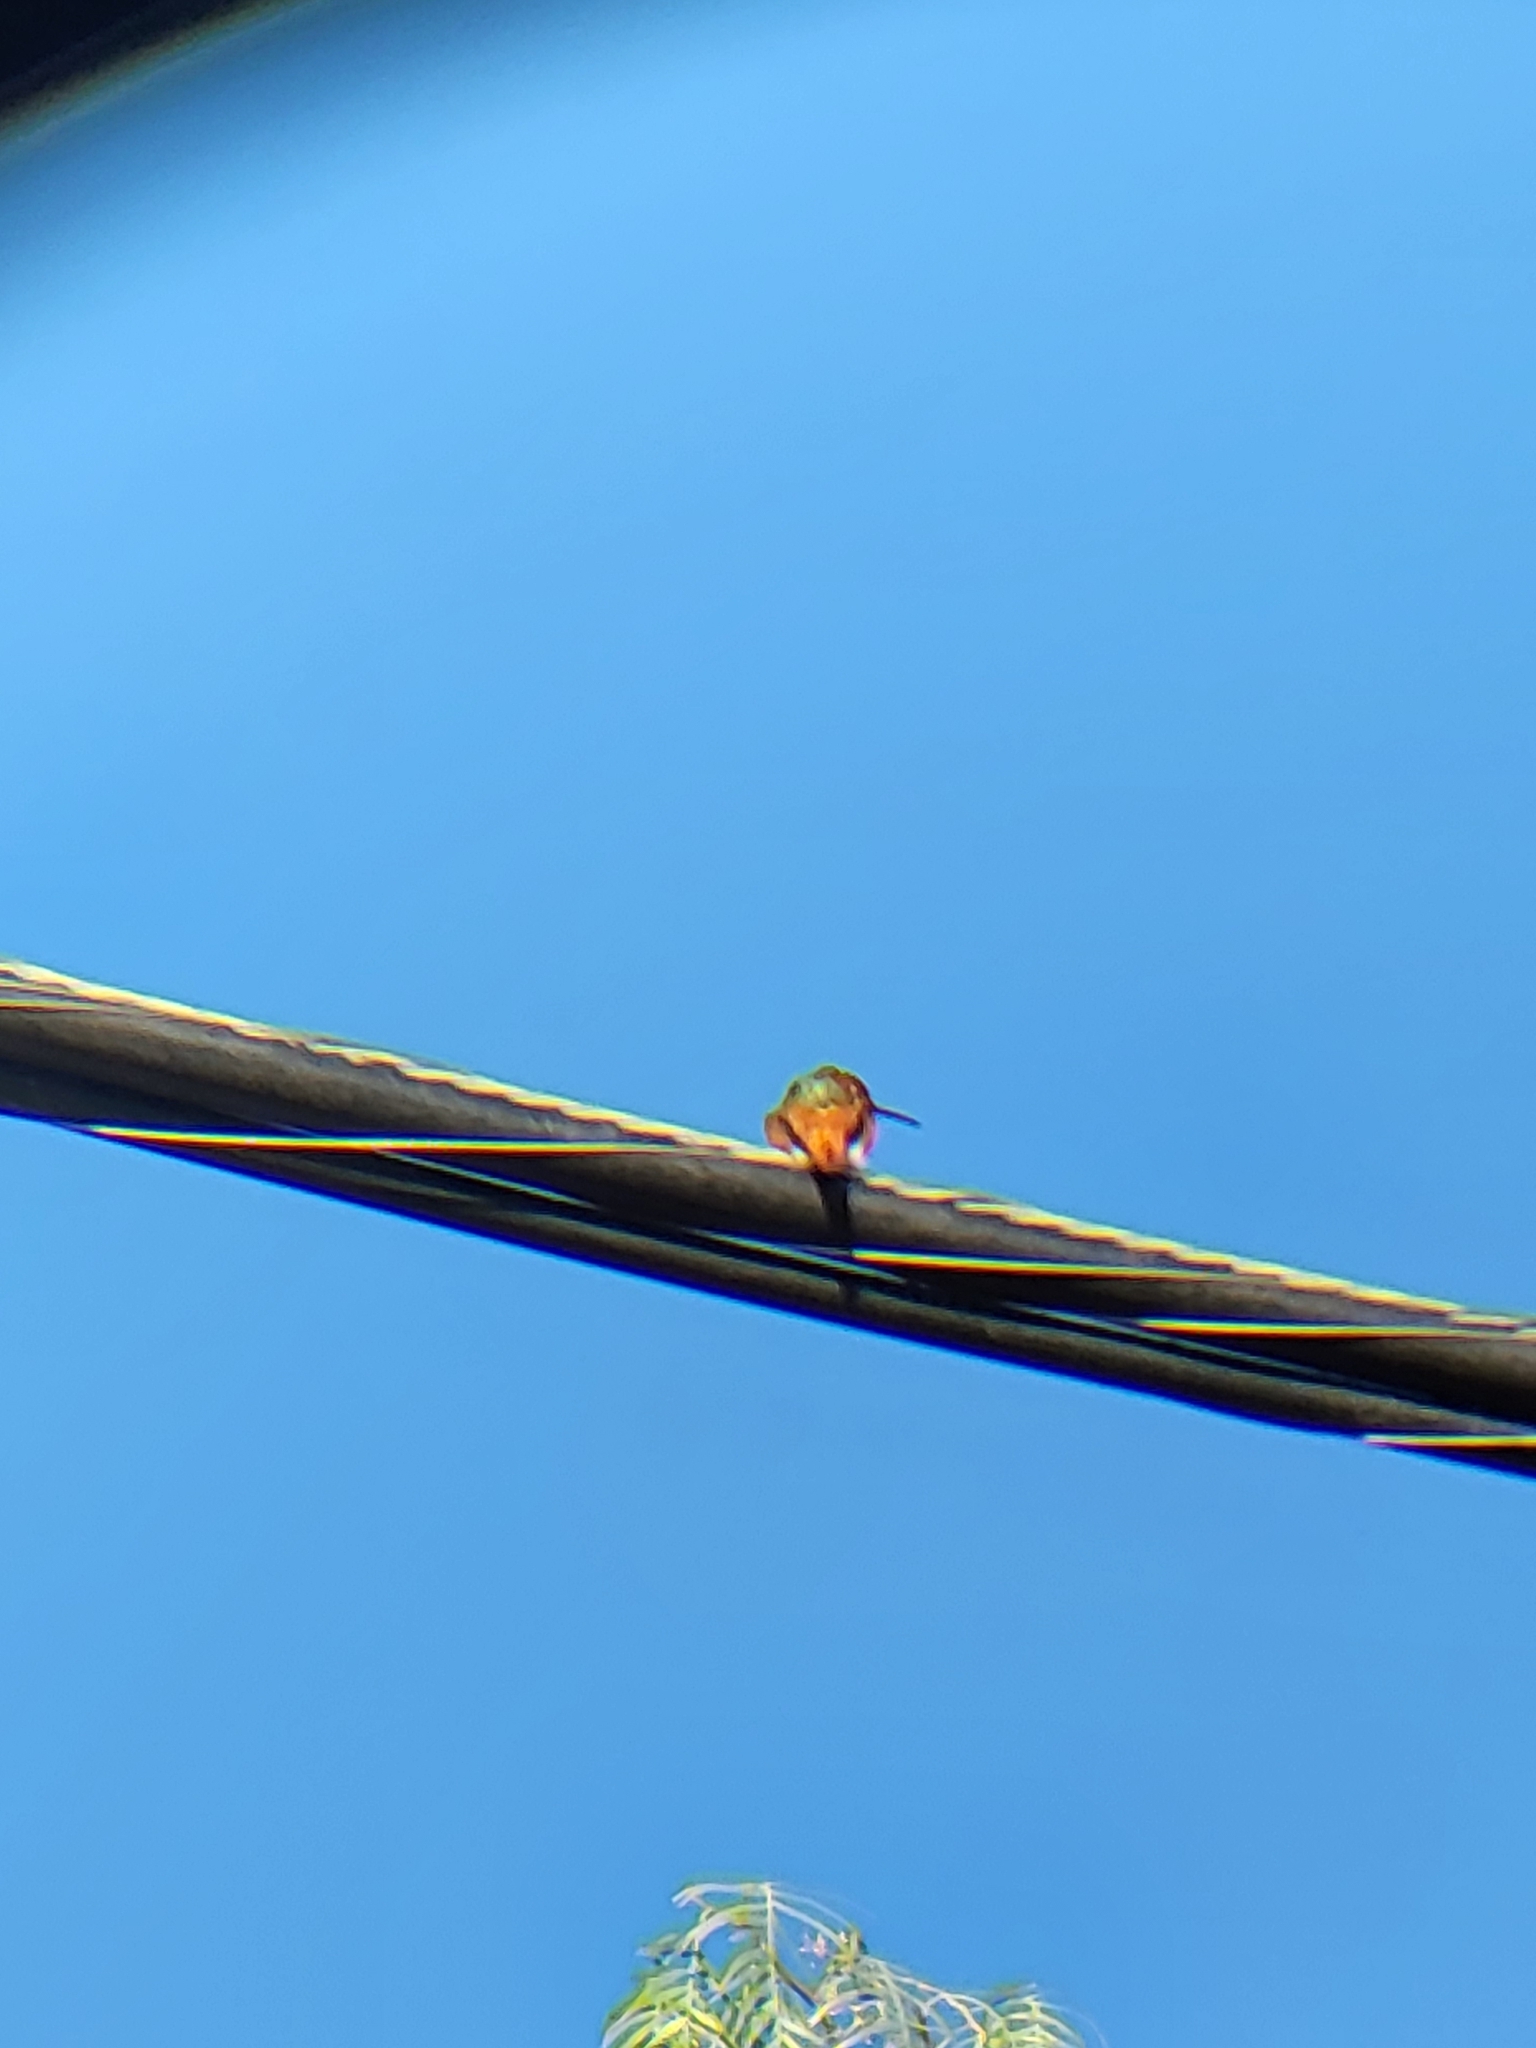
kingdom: Animalia
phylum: Chordata
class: Aves
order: Apodiformes
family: Trochilidae
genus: Selasphorus
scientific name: Selasphorus sasin
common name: Allen's hummingbird
